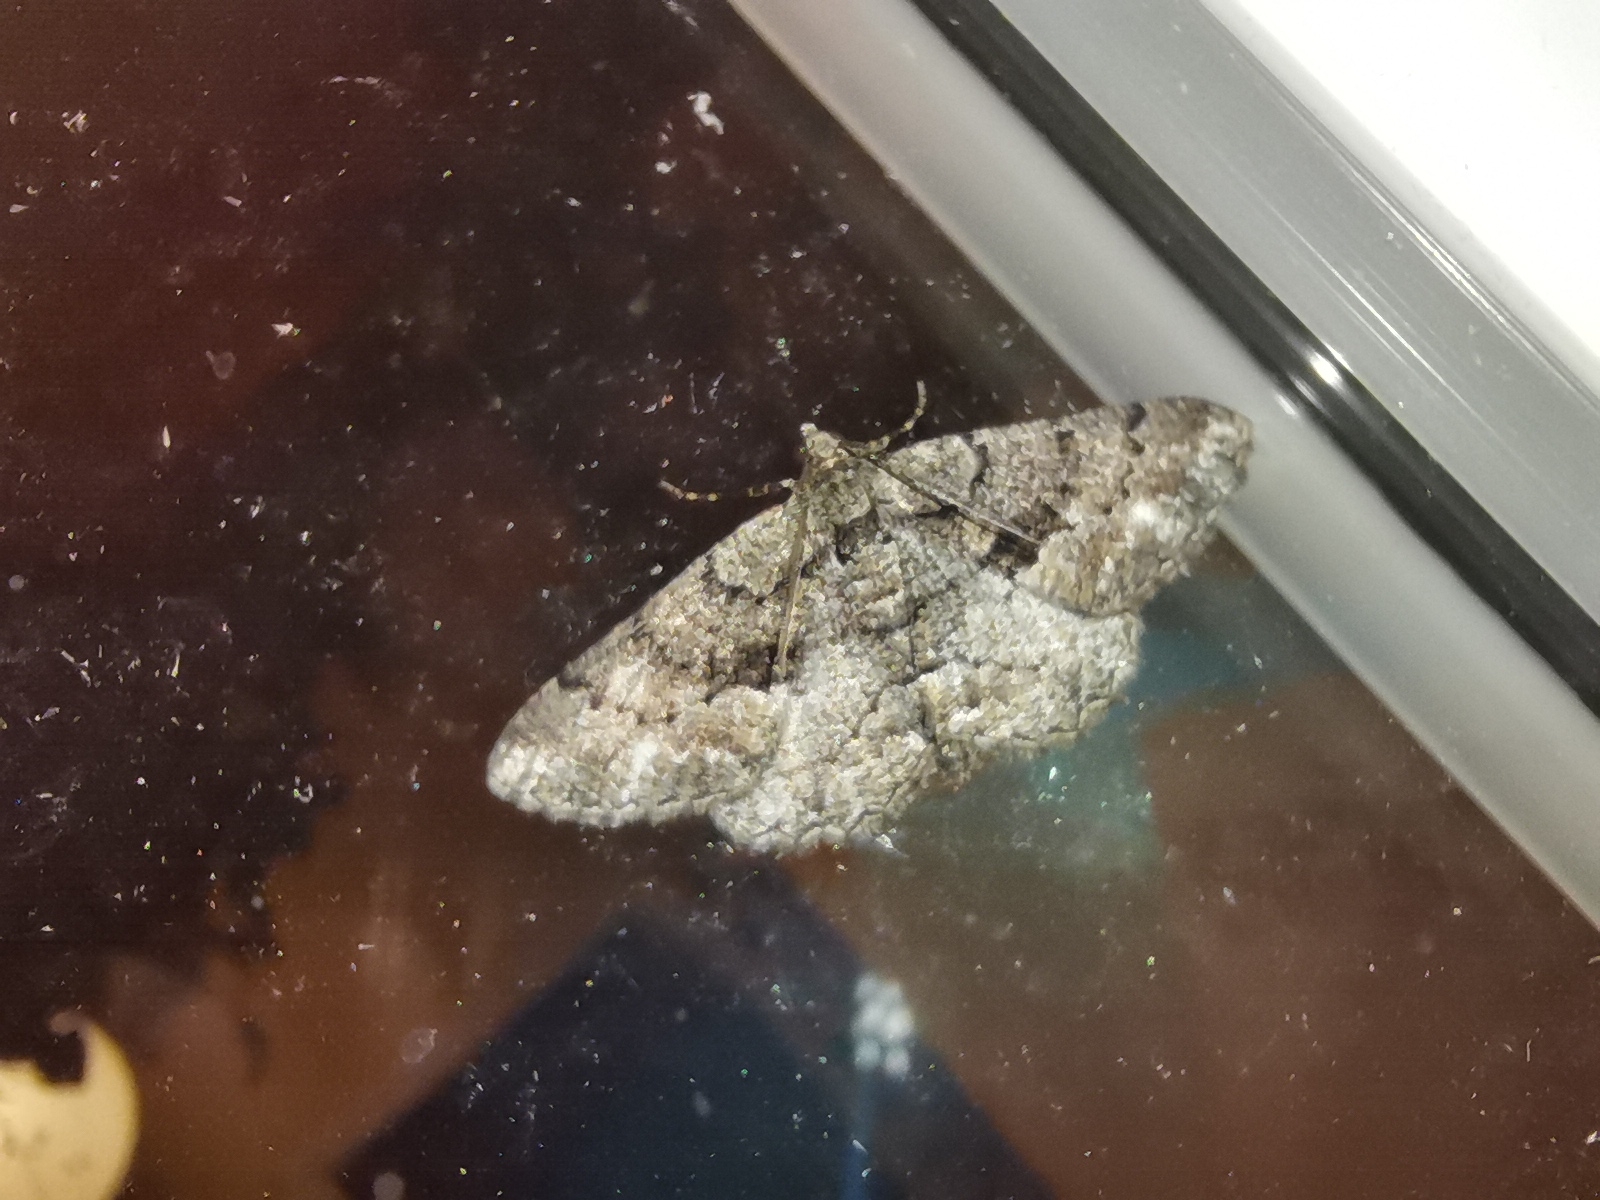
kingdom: Animalia
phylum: Arthropoda
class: Insecta
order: Lepidoptera
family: Geometridae
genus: Peribatodes
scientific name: Peribatodes ilicaria
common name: Lydd beauty
